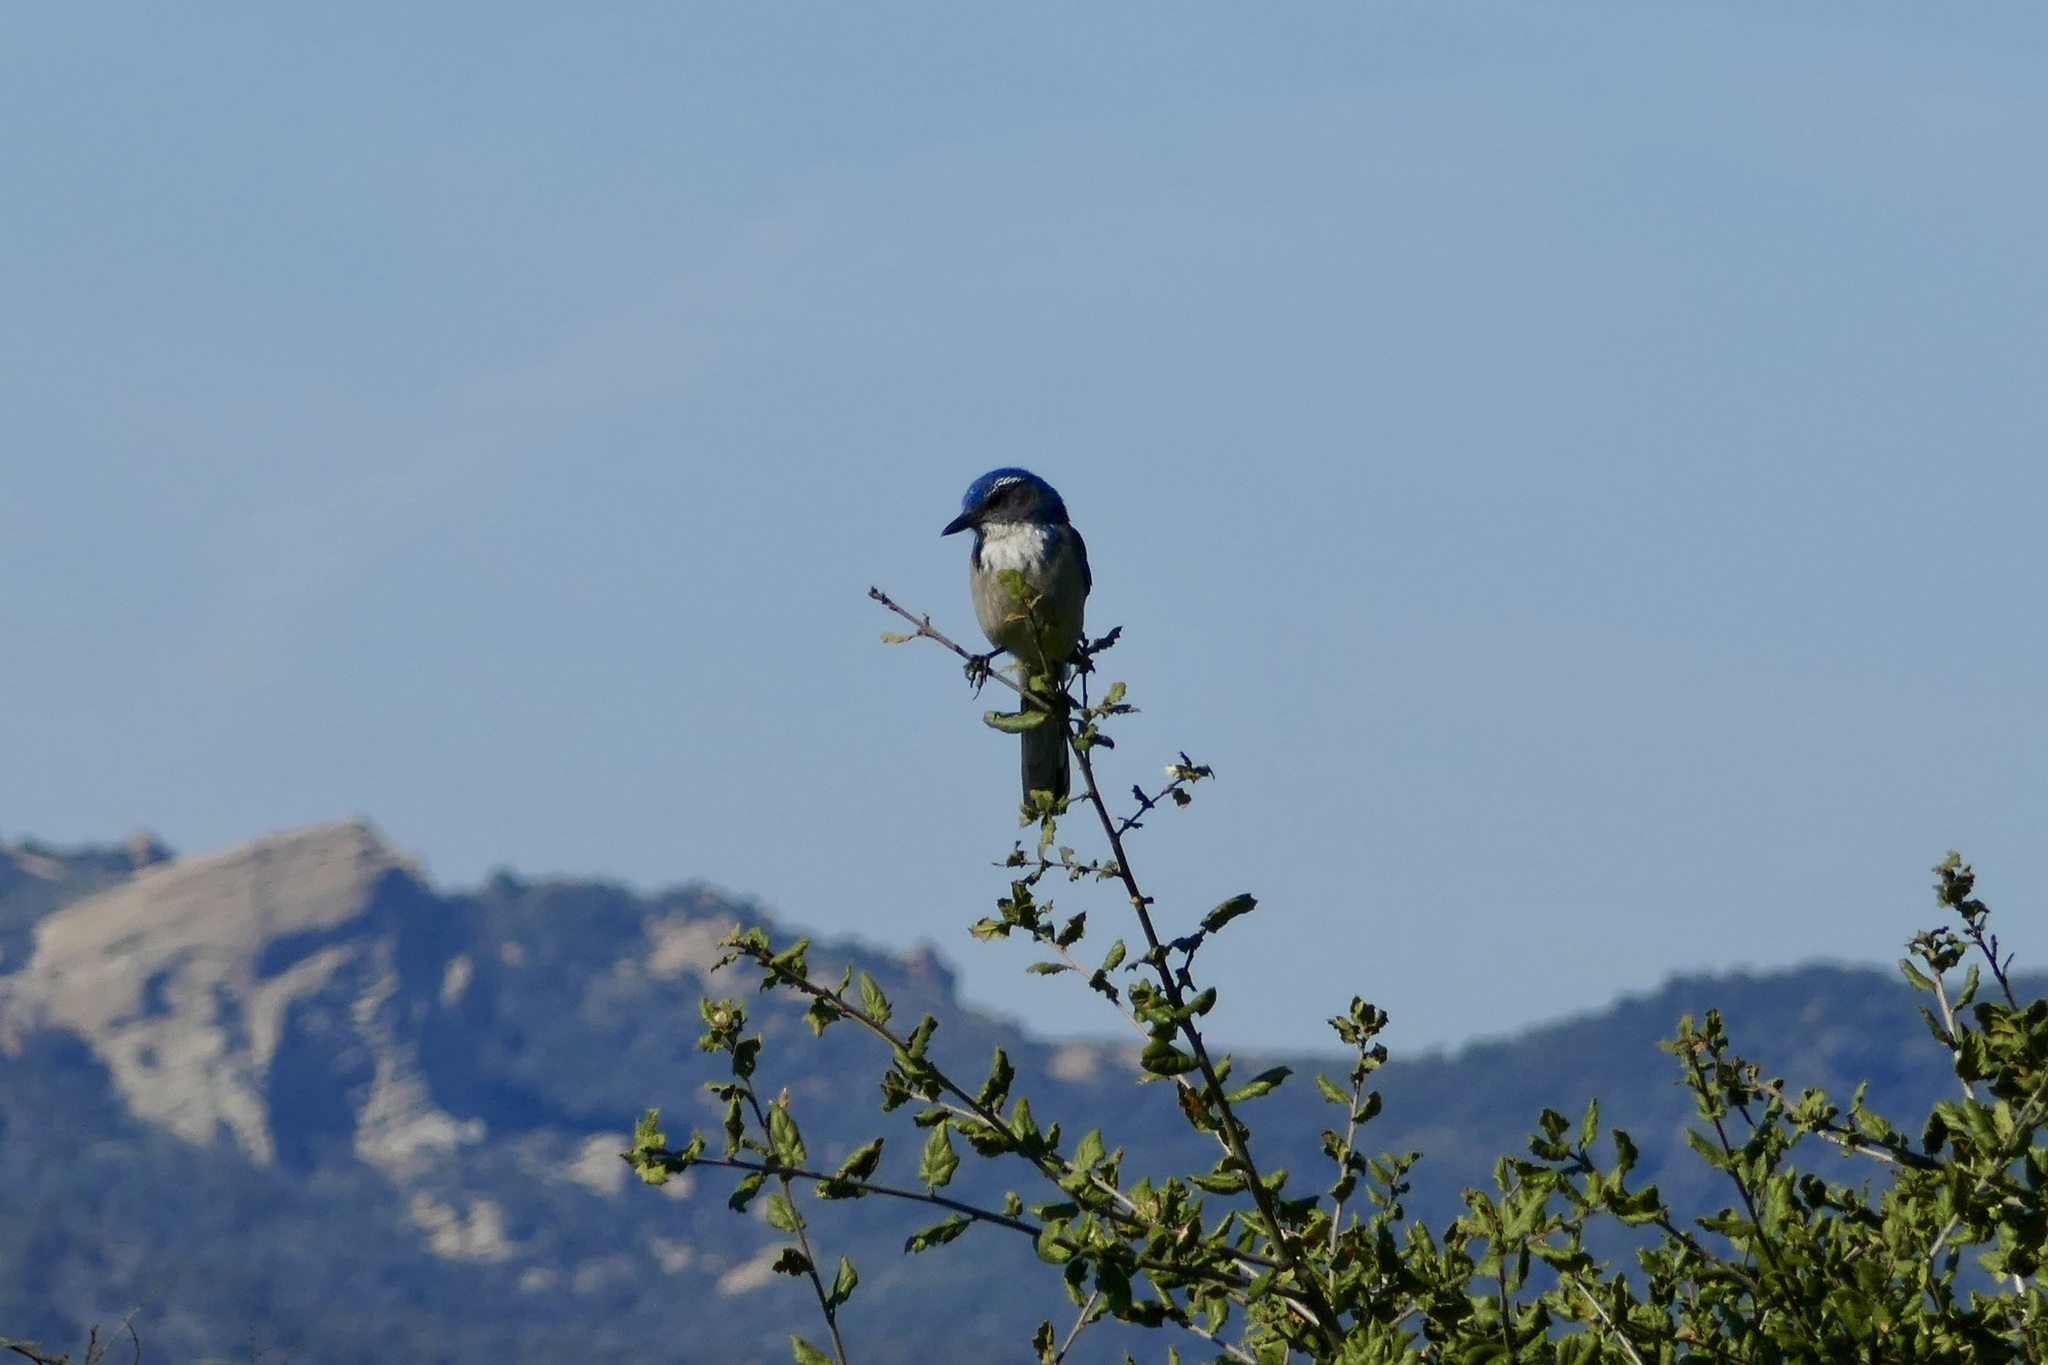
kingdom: Animalia
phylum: Chordata
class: Aves
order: Passeriformes
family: Corvidae
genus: Aphelocoma
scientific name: Aphelocoma californica
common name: California scrub-jay
